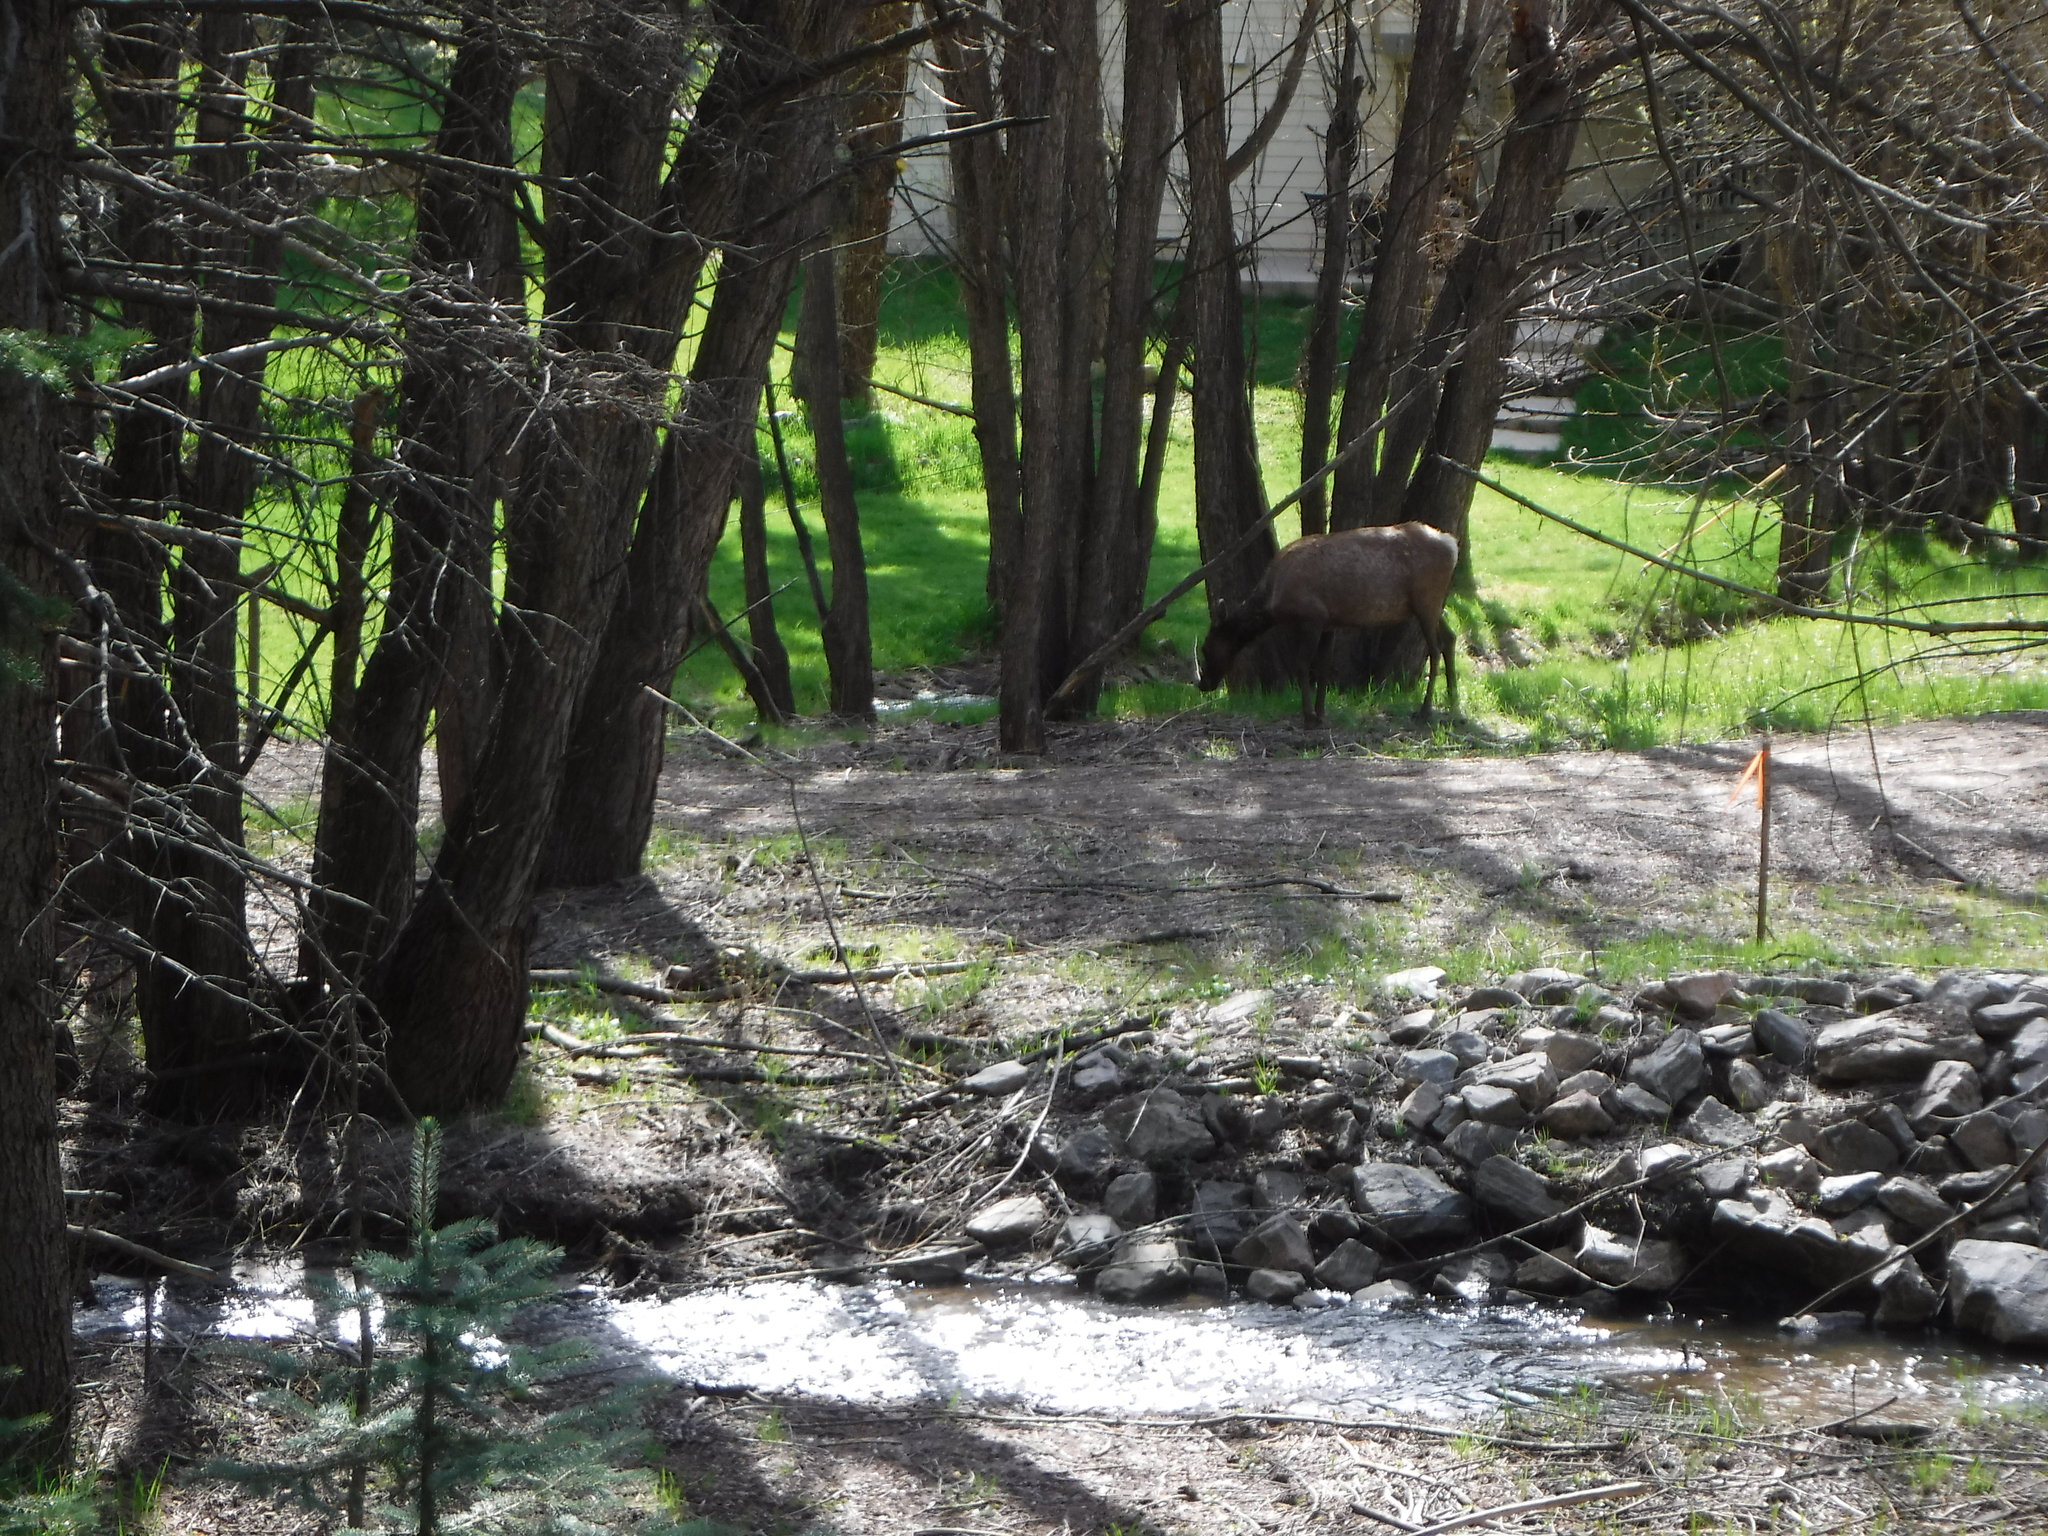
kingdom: Animalia
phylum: Chordata
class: Mammalia
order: Artiodactyla
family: Cervidae
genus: Cervus
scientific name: Cervus elaphus
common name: Red deer
